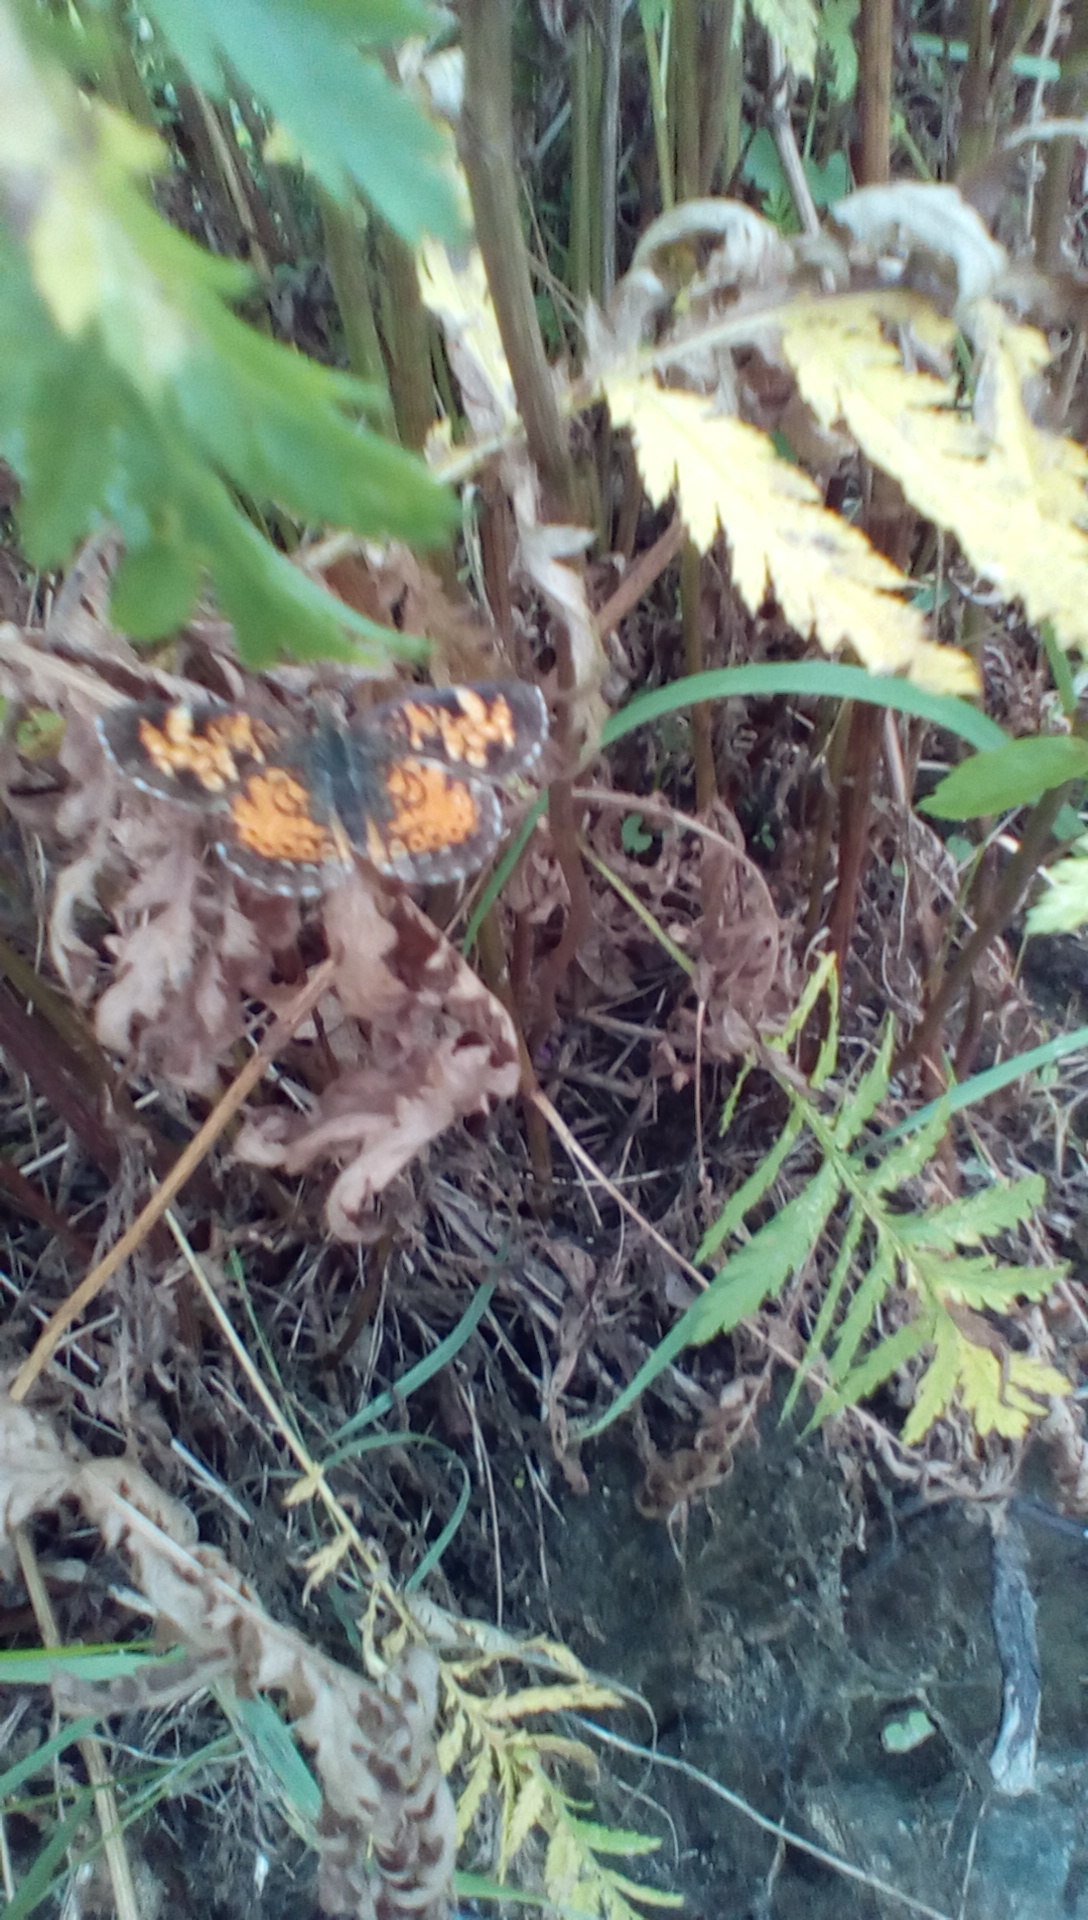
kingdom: Animalia
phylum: Arthropoda
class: Insecta
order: Lepidoptera
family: Nymphalidae
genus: Phyciodes
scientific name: Phyciodes tharos
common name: Pearl crescent
